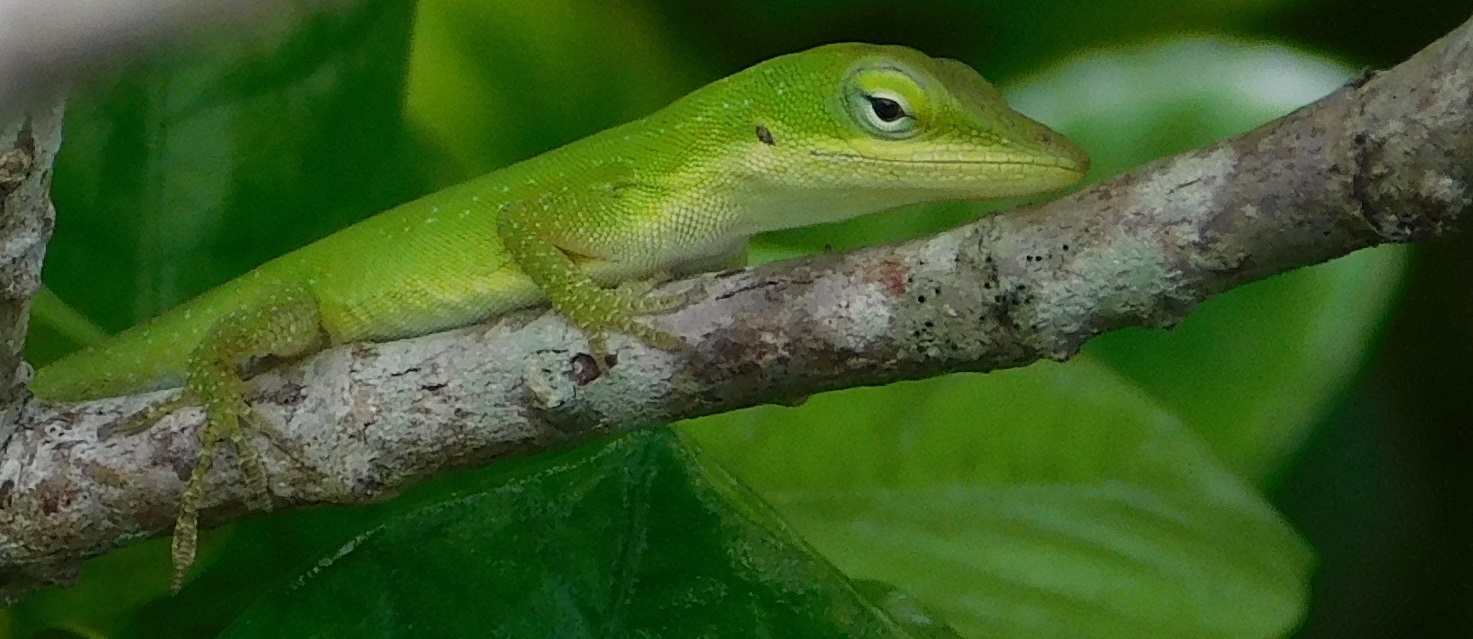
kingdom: Animalia
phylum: Chordata
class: Squamata
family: Dactyloidae
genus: Anolis
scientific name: Anolis carolinensis
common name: Green anole
